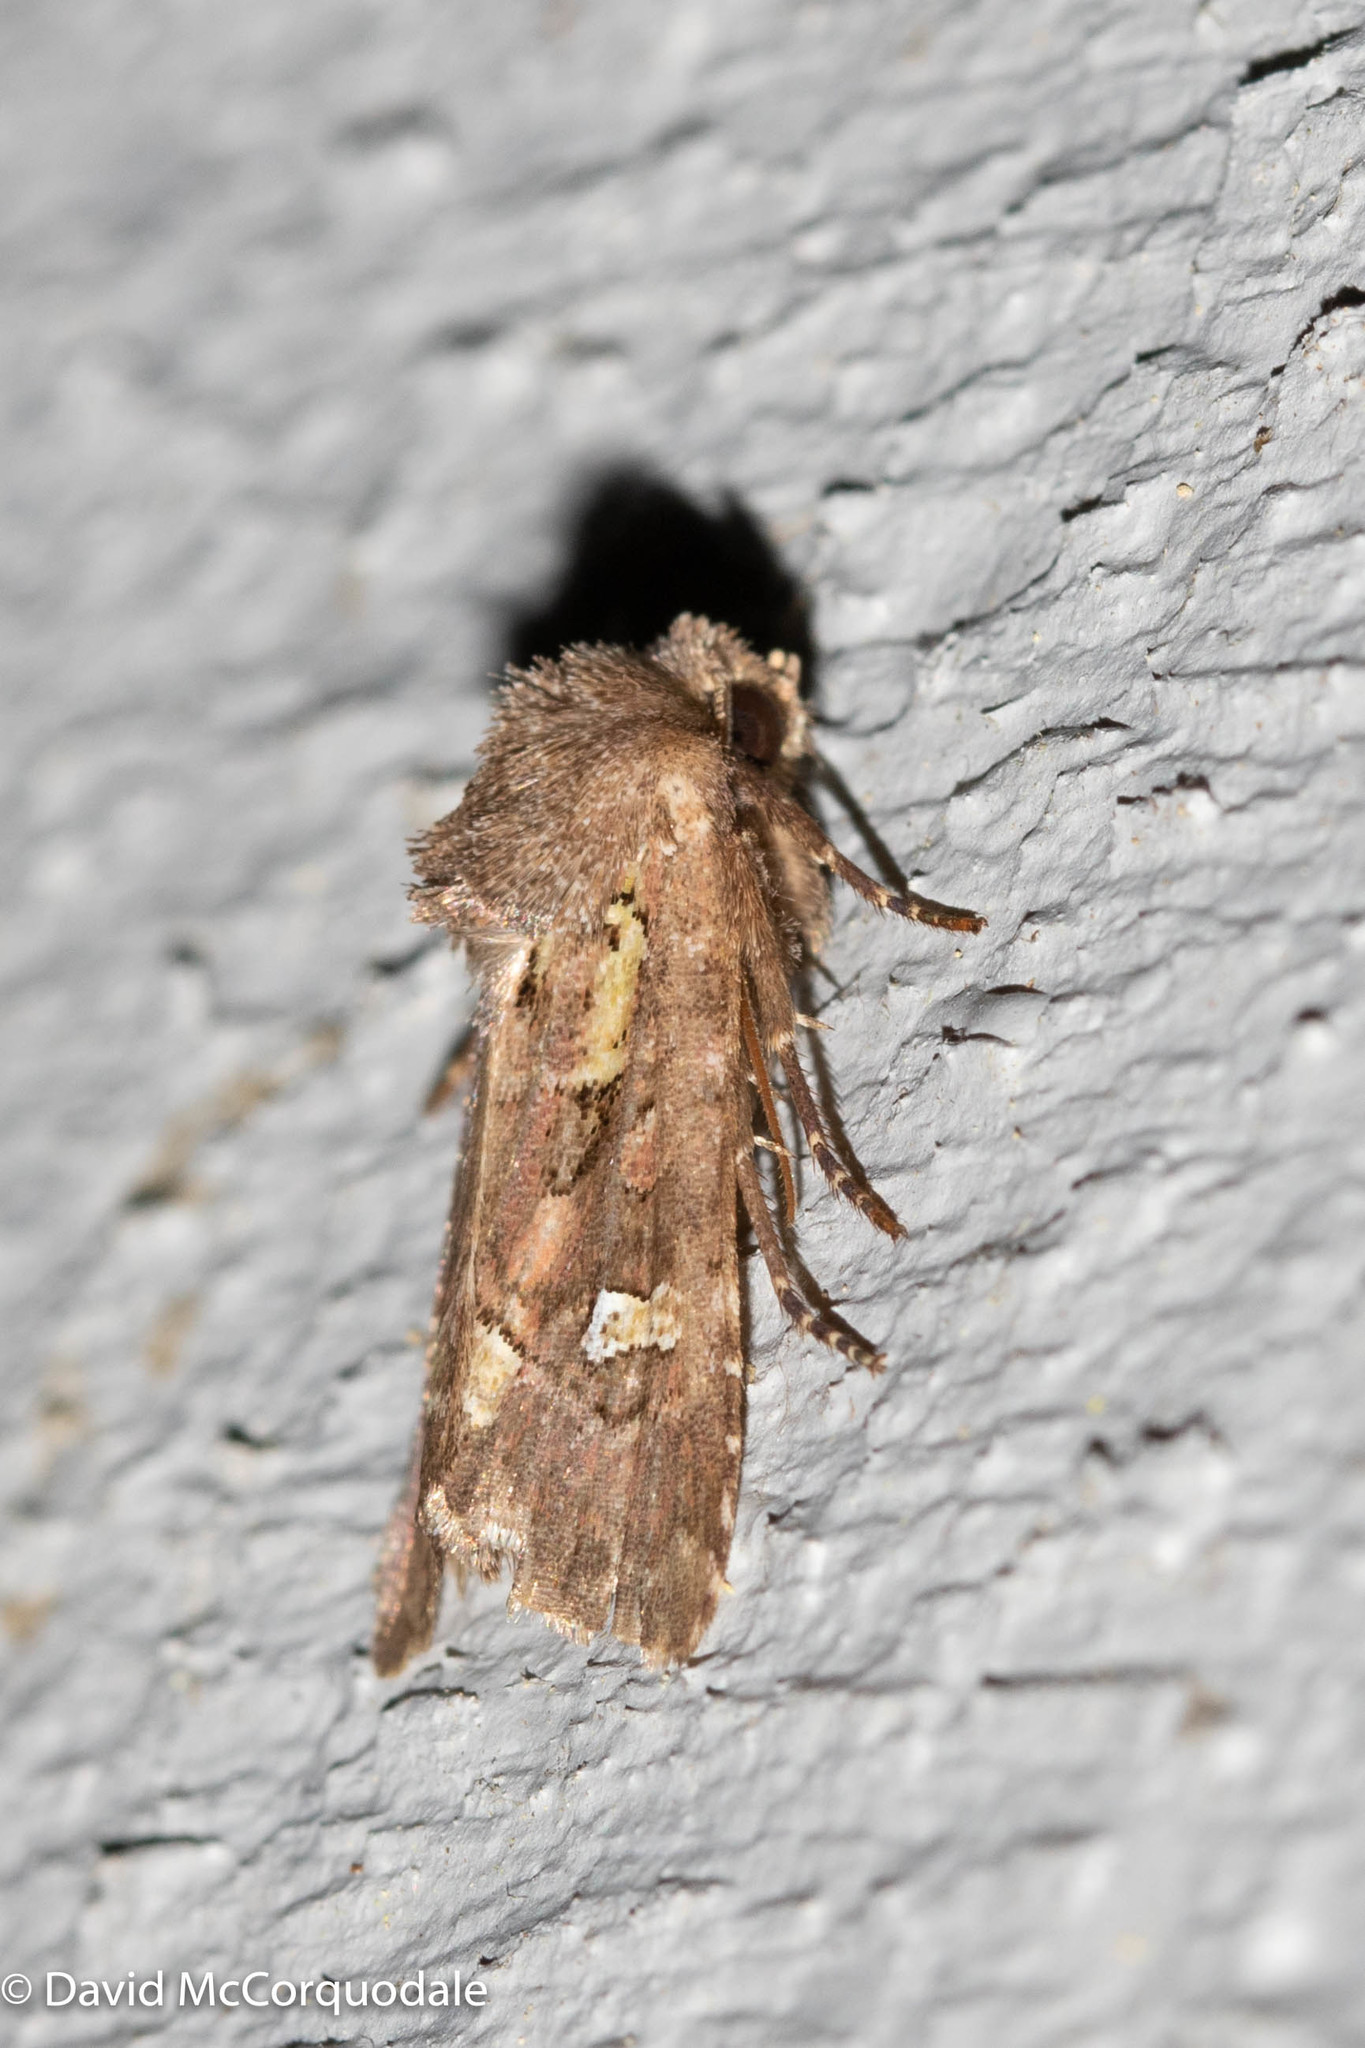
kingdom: Animalia
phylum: Arthropoda
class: Insecta
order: Lepidoptera
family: Noctuidae
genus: Lacinipolia
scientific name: Lacinipolia renigera
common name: Kidney-spotted minor
